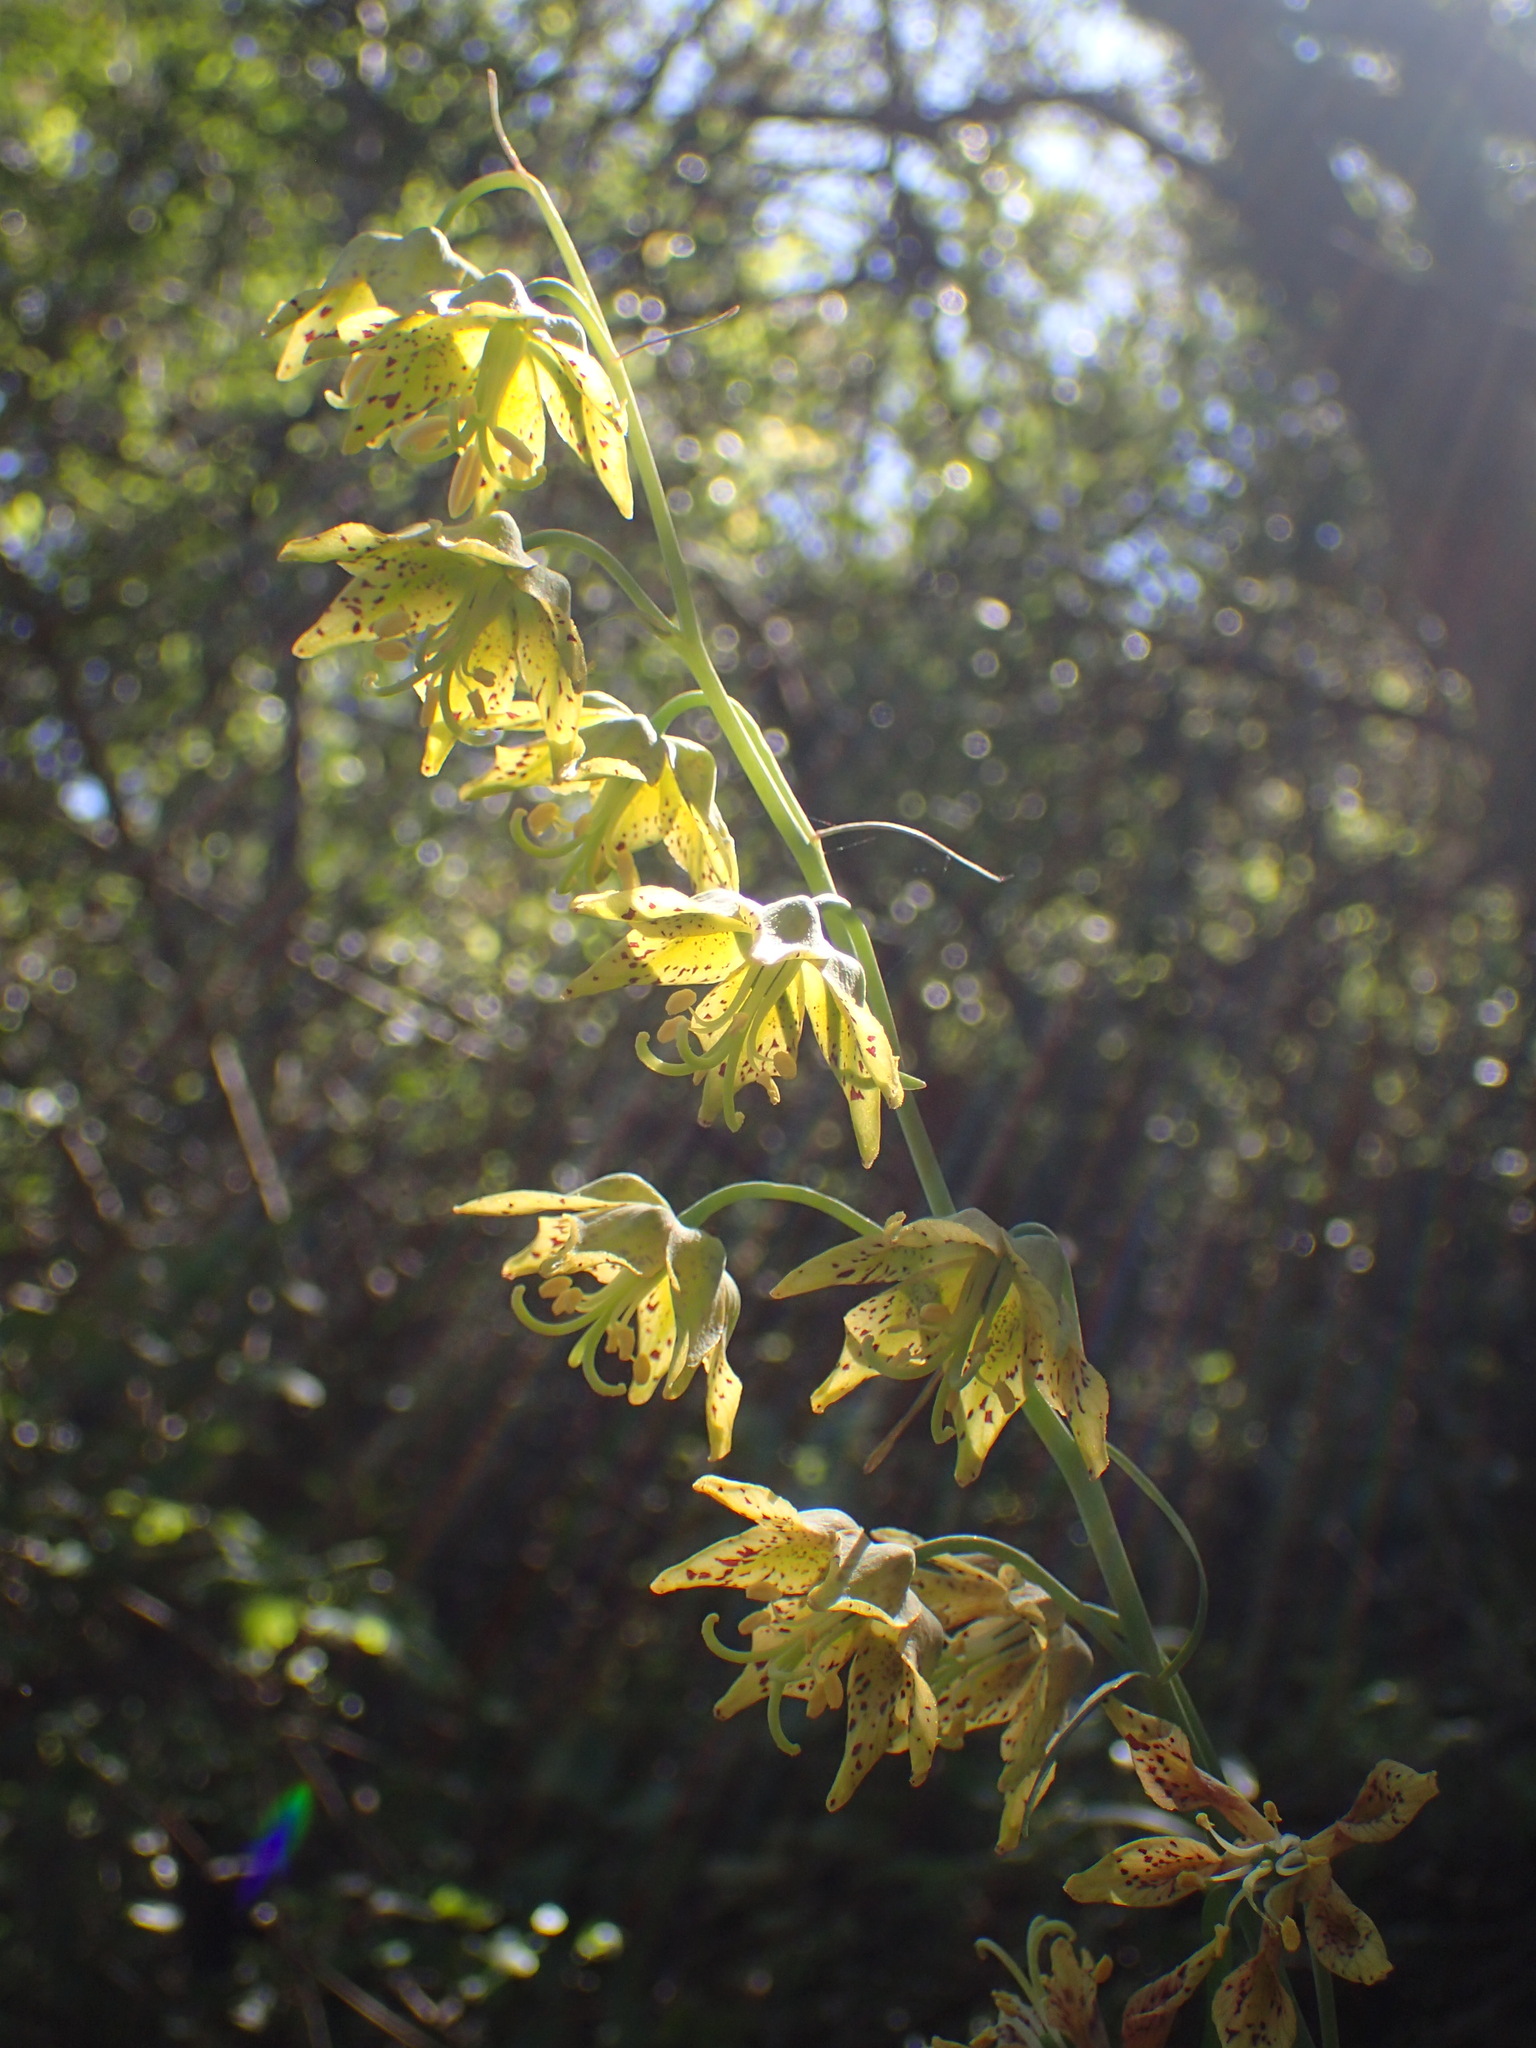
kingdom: Plantae
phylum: Tracheophyta
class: Liliopsida
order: Liliales
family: Liliaceae
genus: Fritillaria
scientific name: Fritillaria ojaiensis
